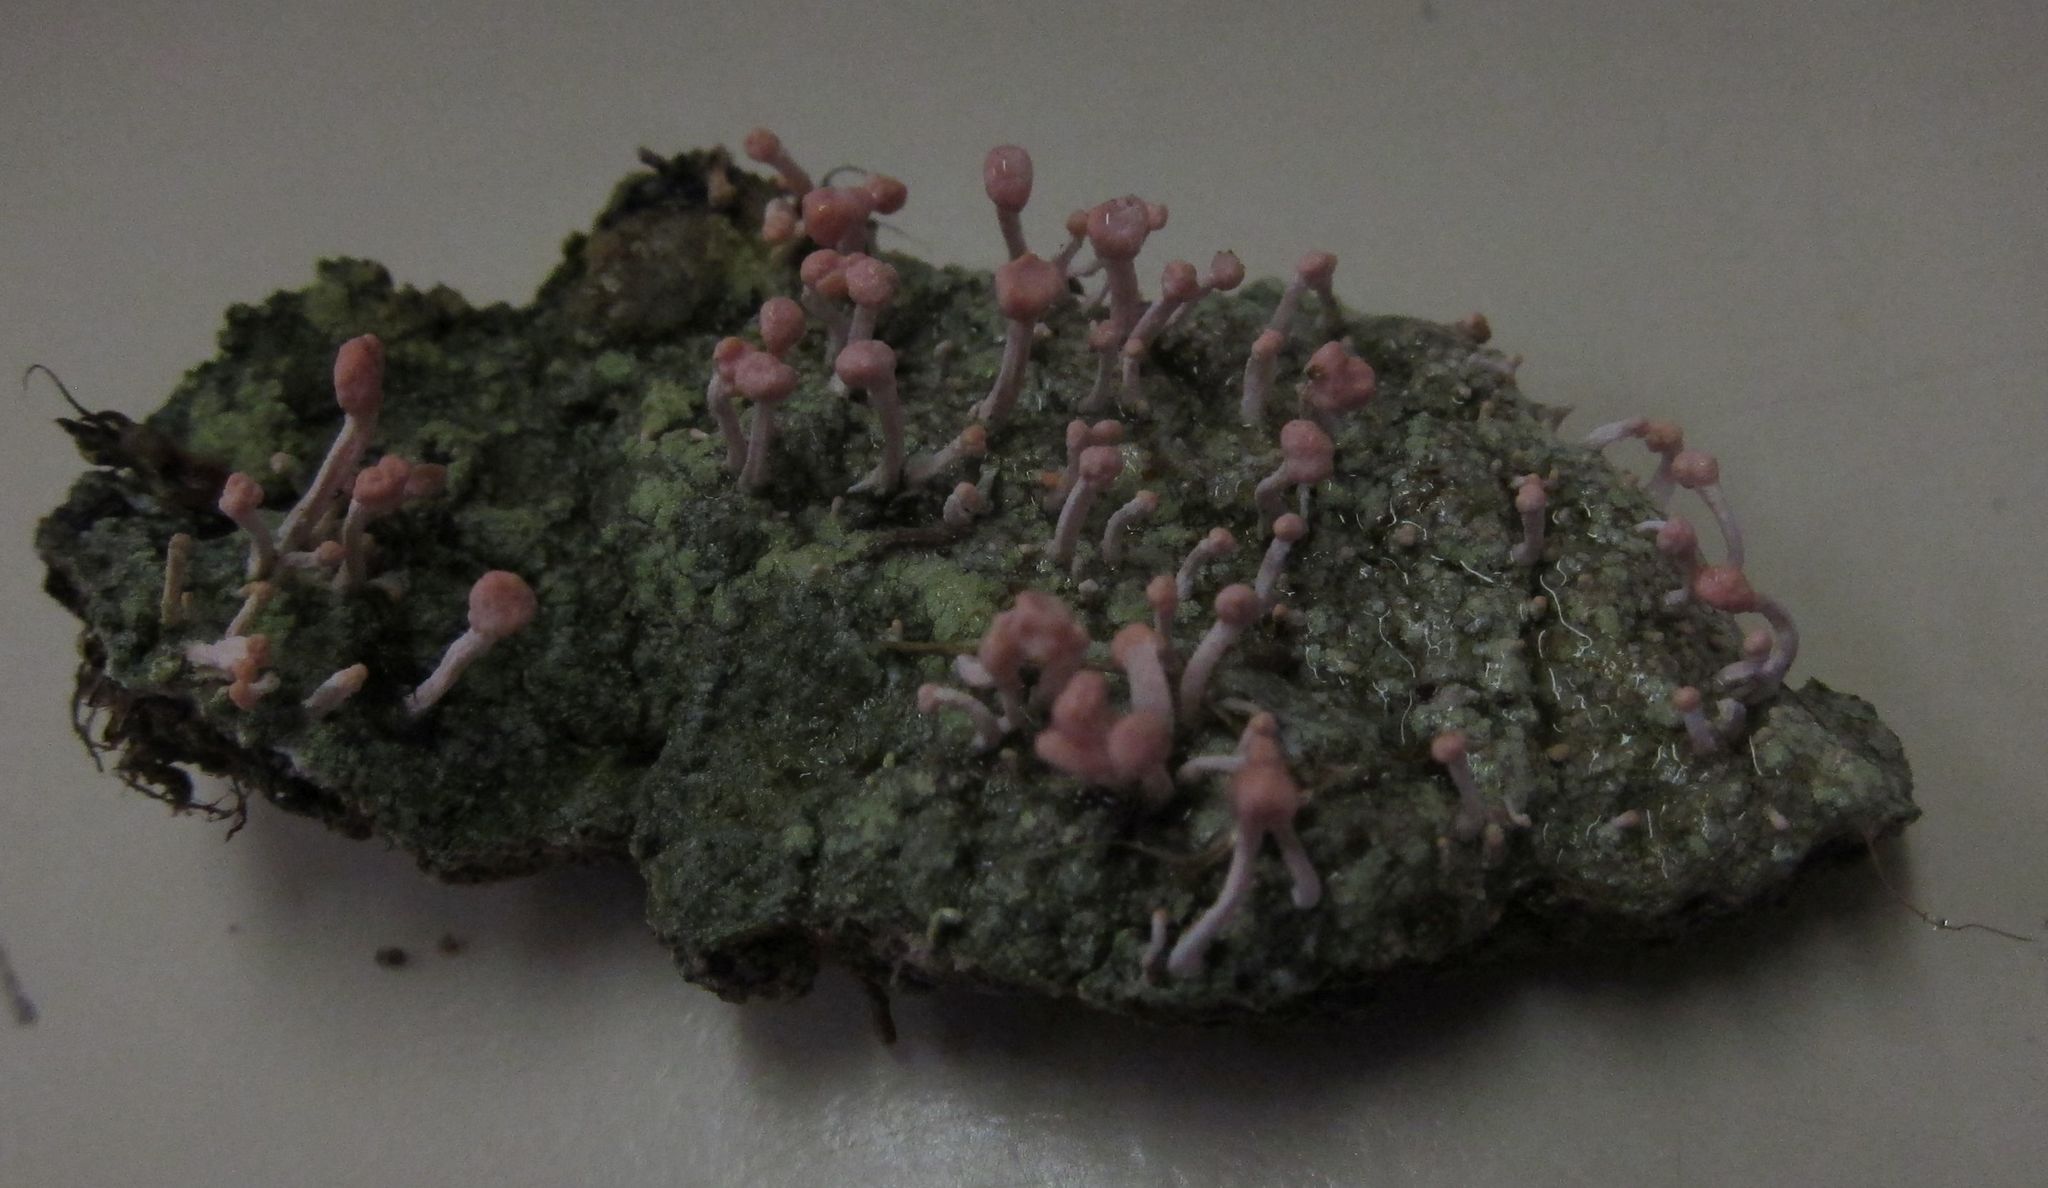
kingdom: Fungi
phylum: Ascomycota
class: Lecanoromycetes
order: Pertusariales
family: Icmadophilaceae
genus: Dibaeis
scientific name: Dibaeis arcuata
